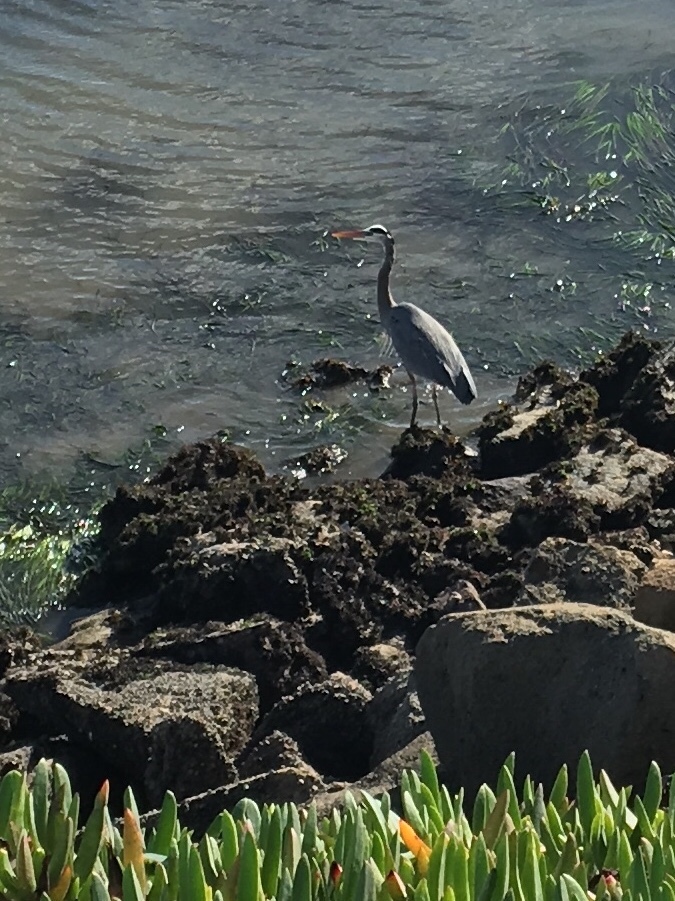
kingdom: Animalia
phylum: Chordata
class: Aves
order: Pelecaniformes
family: Ardeidae
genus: Ardea
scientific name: Ardea herodias
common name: Great blue heron
